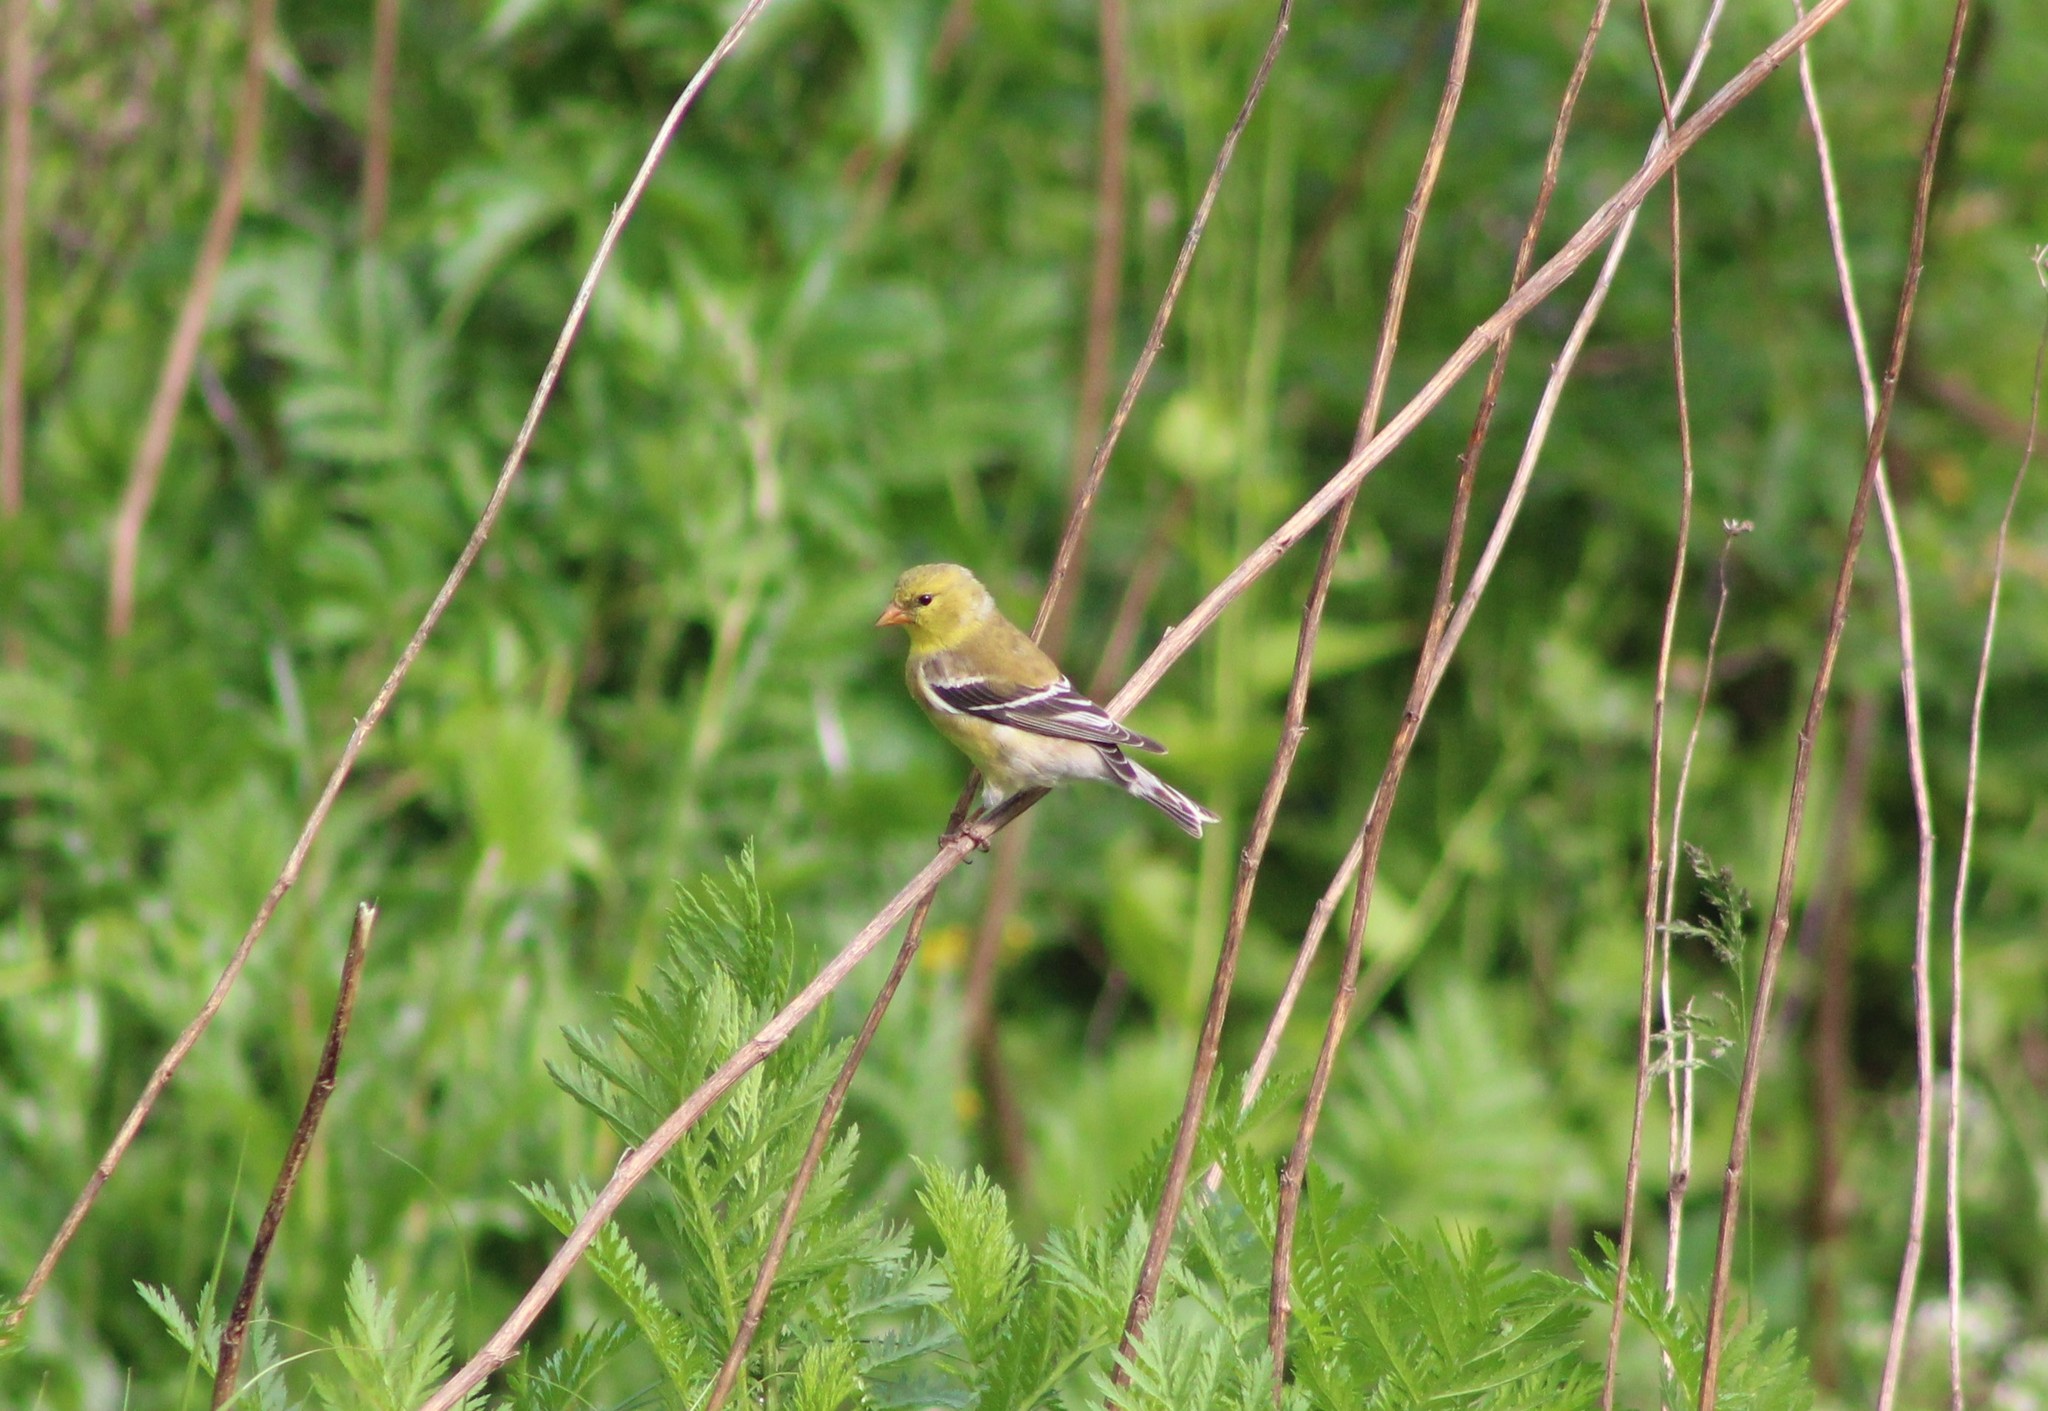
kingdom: Animalia
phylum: Chordata
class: Aves
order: Passeriformes
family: Fringillidae
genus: Spinus
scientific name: Spinus tristis
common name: American goldfinch
